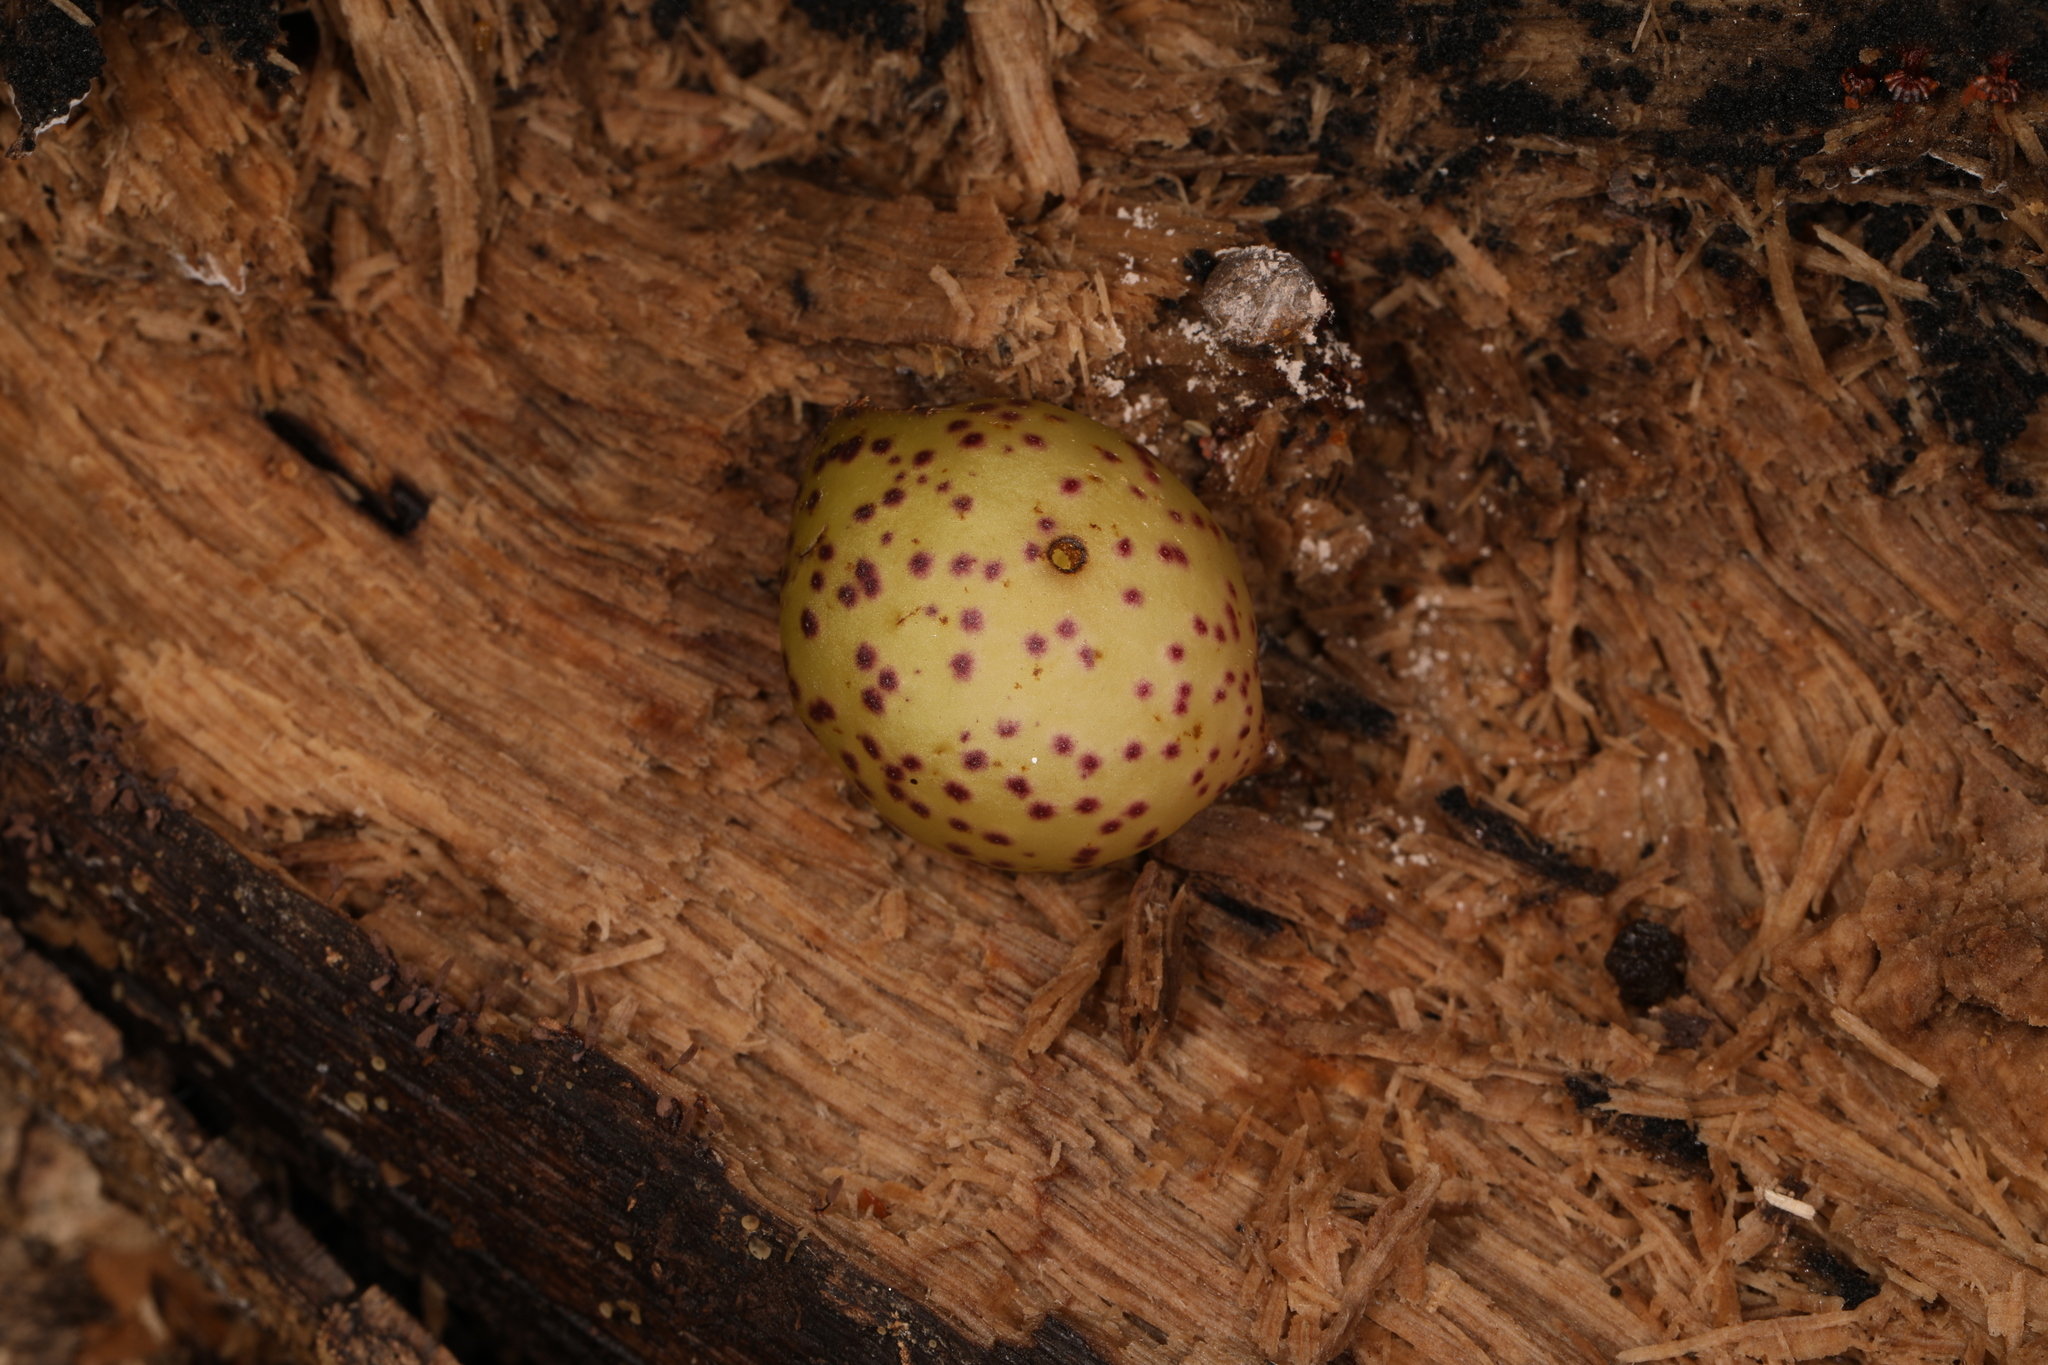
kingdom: Animalia
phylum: Arthropoda
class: Insecta
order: Hymenoptera
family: Cynipidae
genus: Amphibolips
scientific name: Amphibolips
